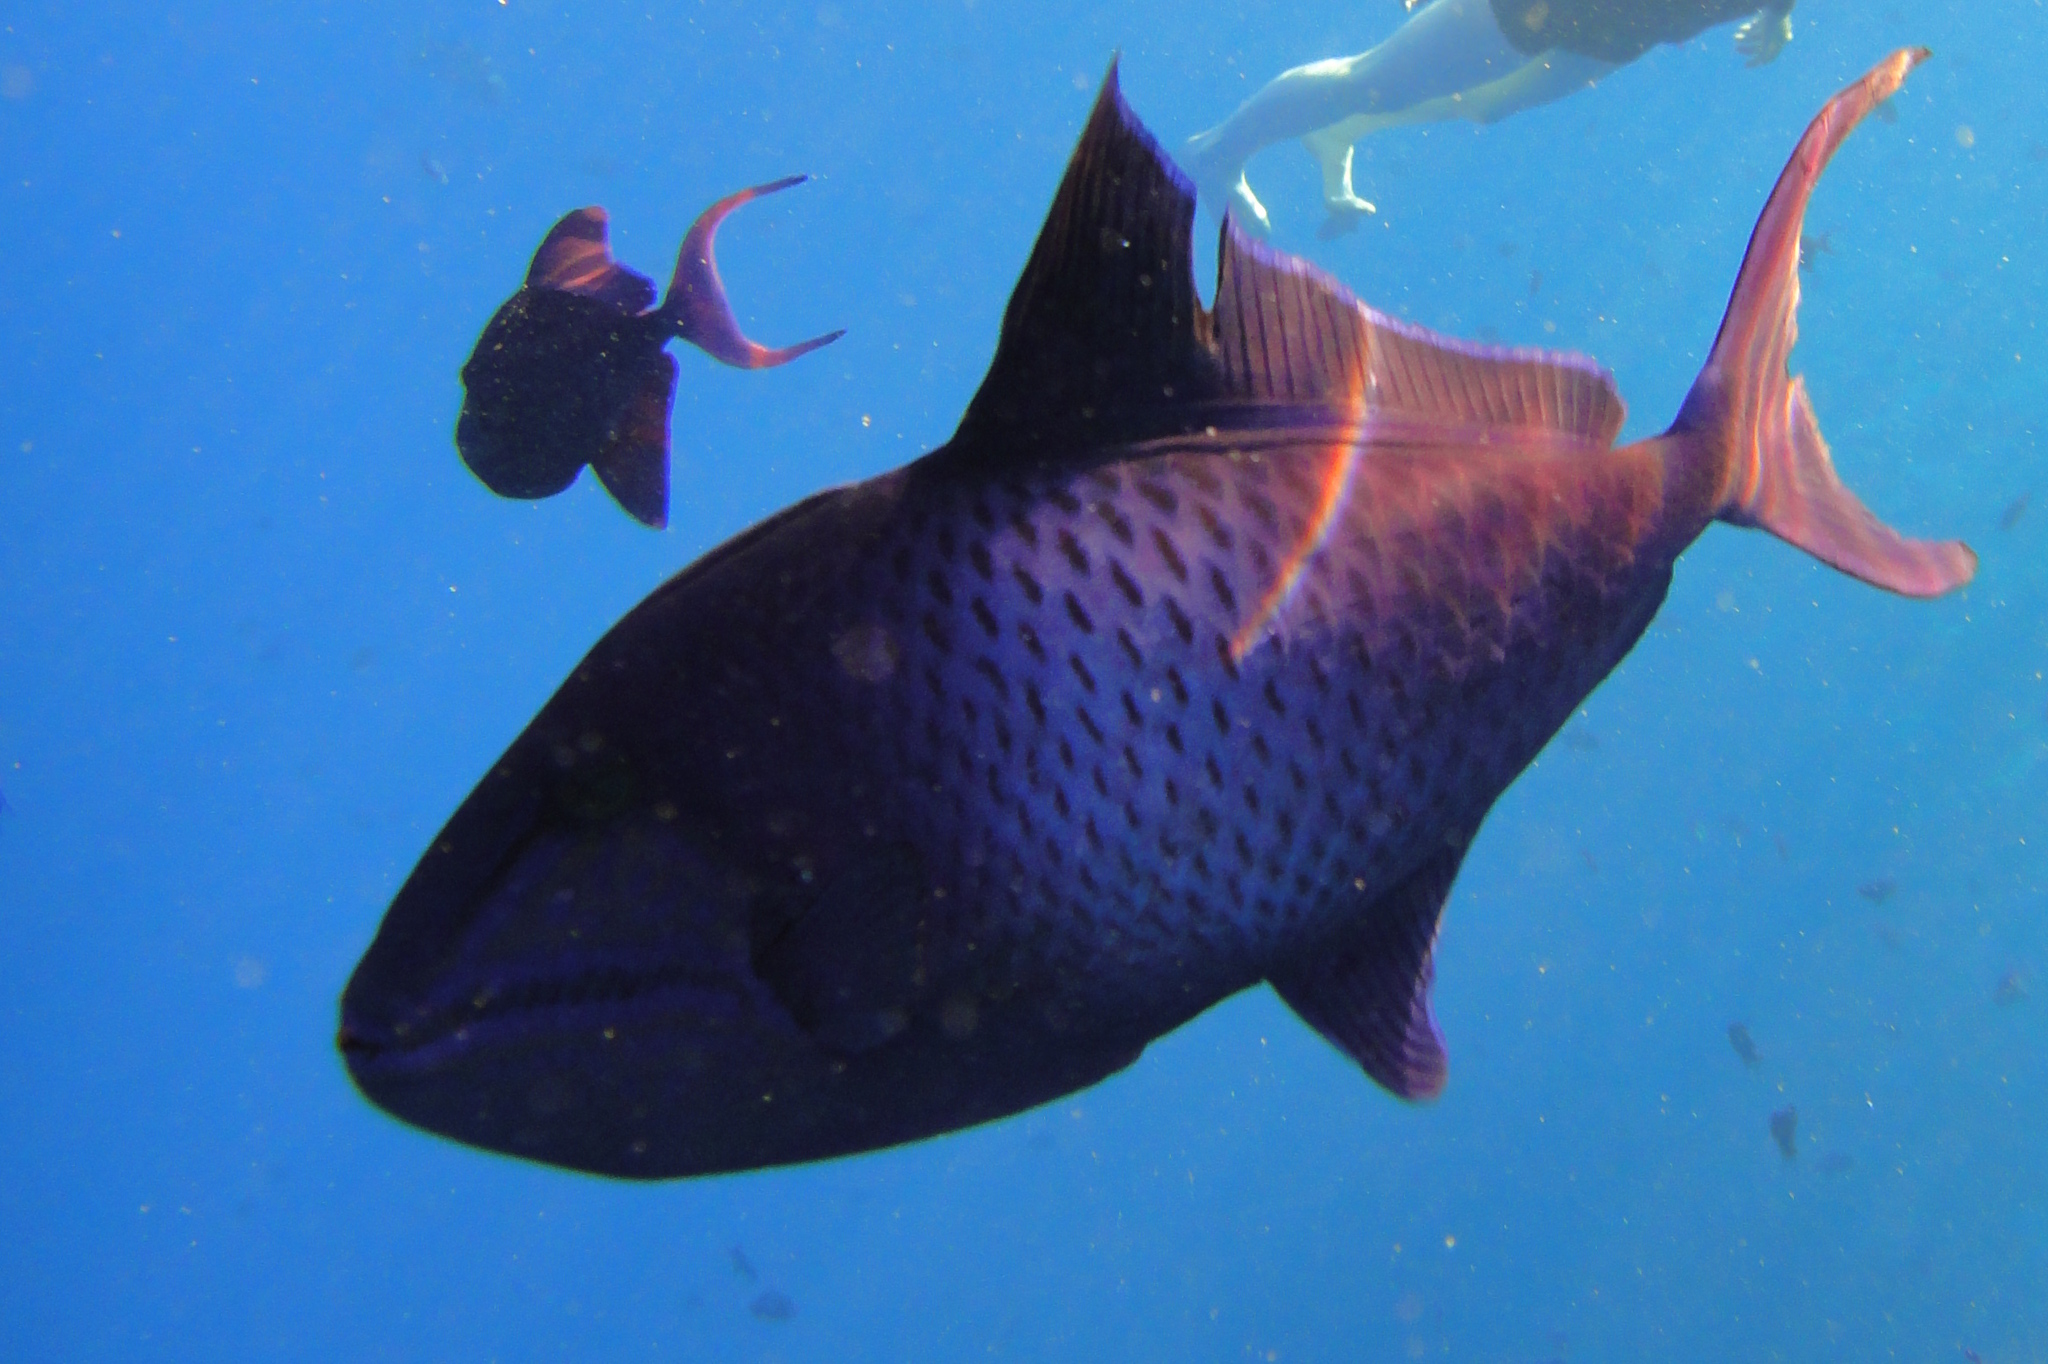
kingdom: Animalia
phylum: Chordata
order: Tetraodontiformes
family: Balistidae
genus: Odonus
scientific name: Odonus niger
